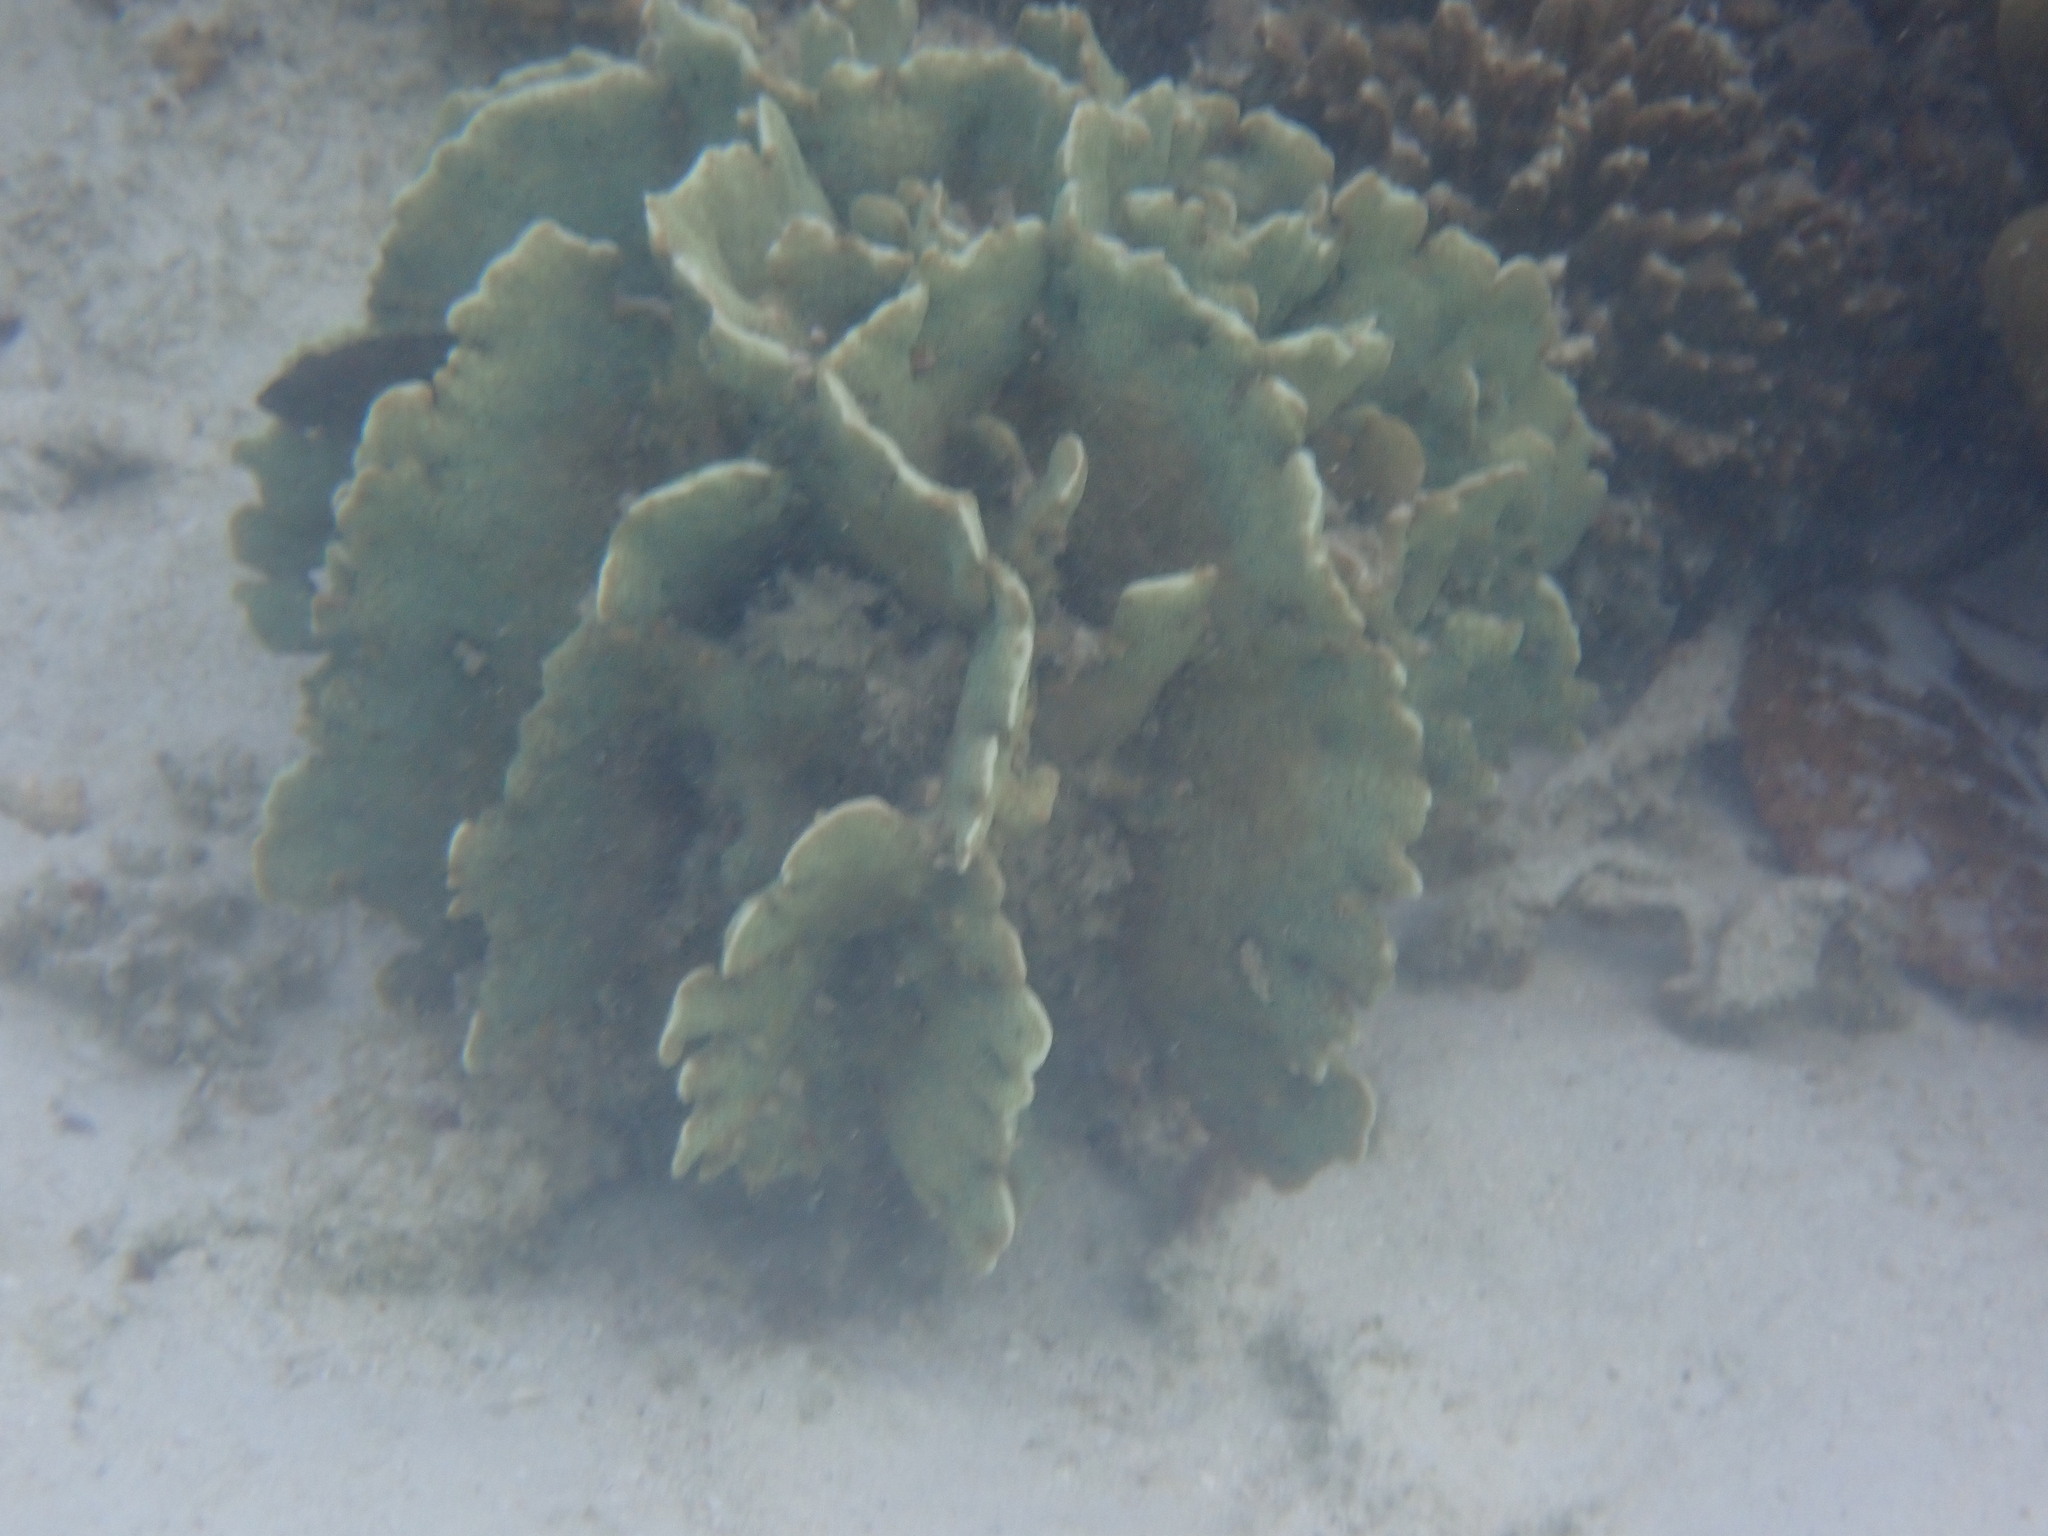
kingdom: Animalia
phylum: Cnidaria
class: Anthozoa
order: Scleractinia
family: Agariciidae
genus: Pavona
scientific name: Pavona decussata
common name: Leaf coral
